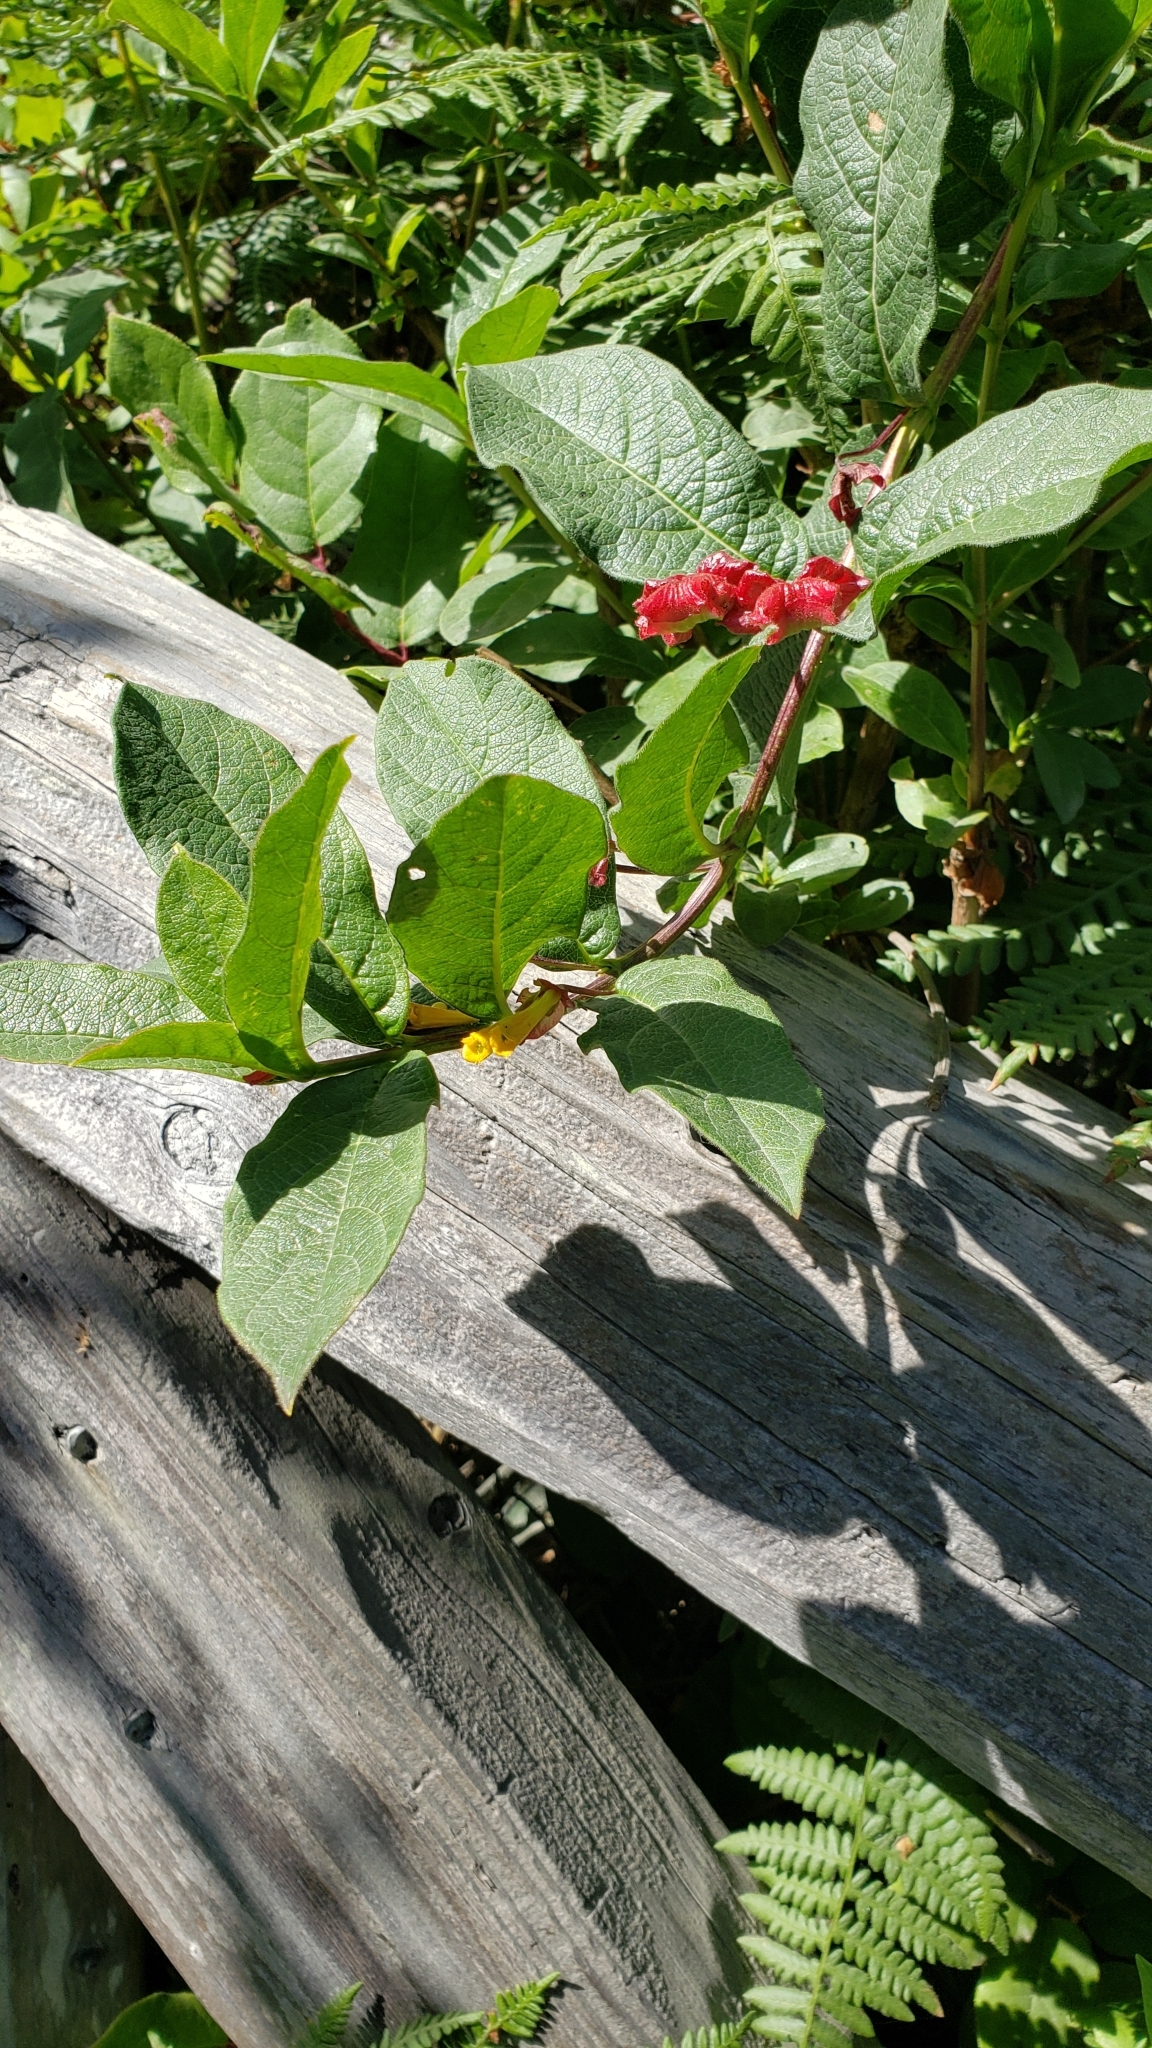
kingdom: Plantae
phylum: Tracheophyta
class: Magnoliopsida
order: Dipsacales
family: Caprifoliaceae
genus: Lonicera
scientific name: Lonicera involucrata
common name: Californian honeysuckle
